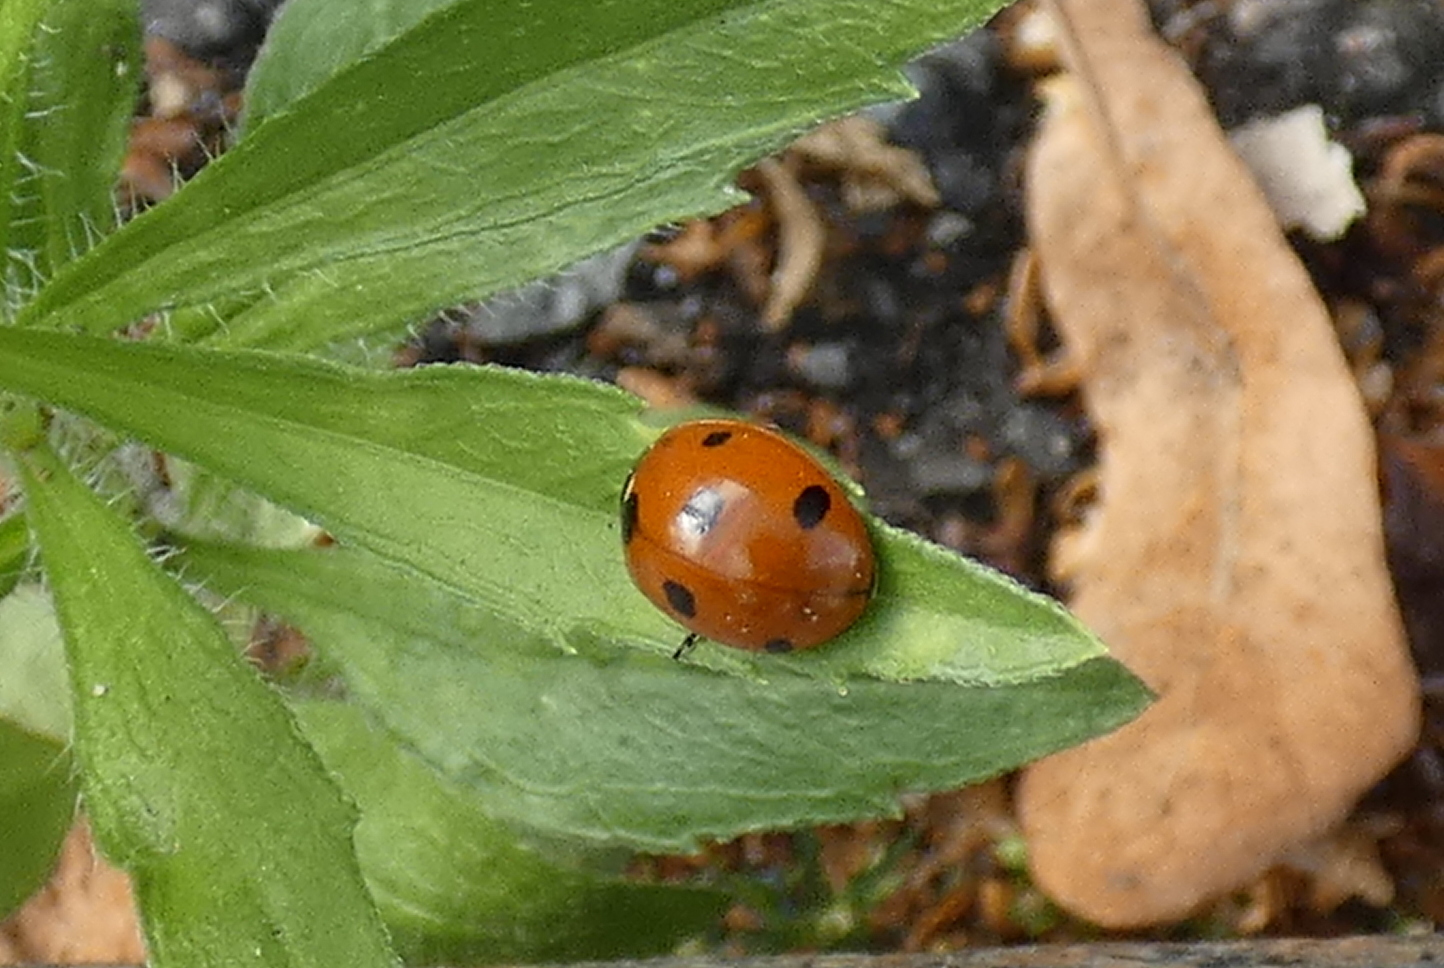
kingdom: Animalia
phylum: Arthropoda
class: Insecta
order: Coleoptera
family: Coccinellidae
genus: Coccinella
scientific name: Coccinella septempunctata
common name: Sevenspotted lady beetle
